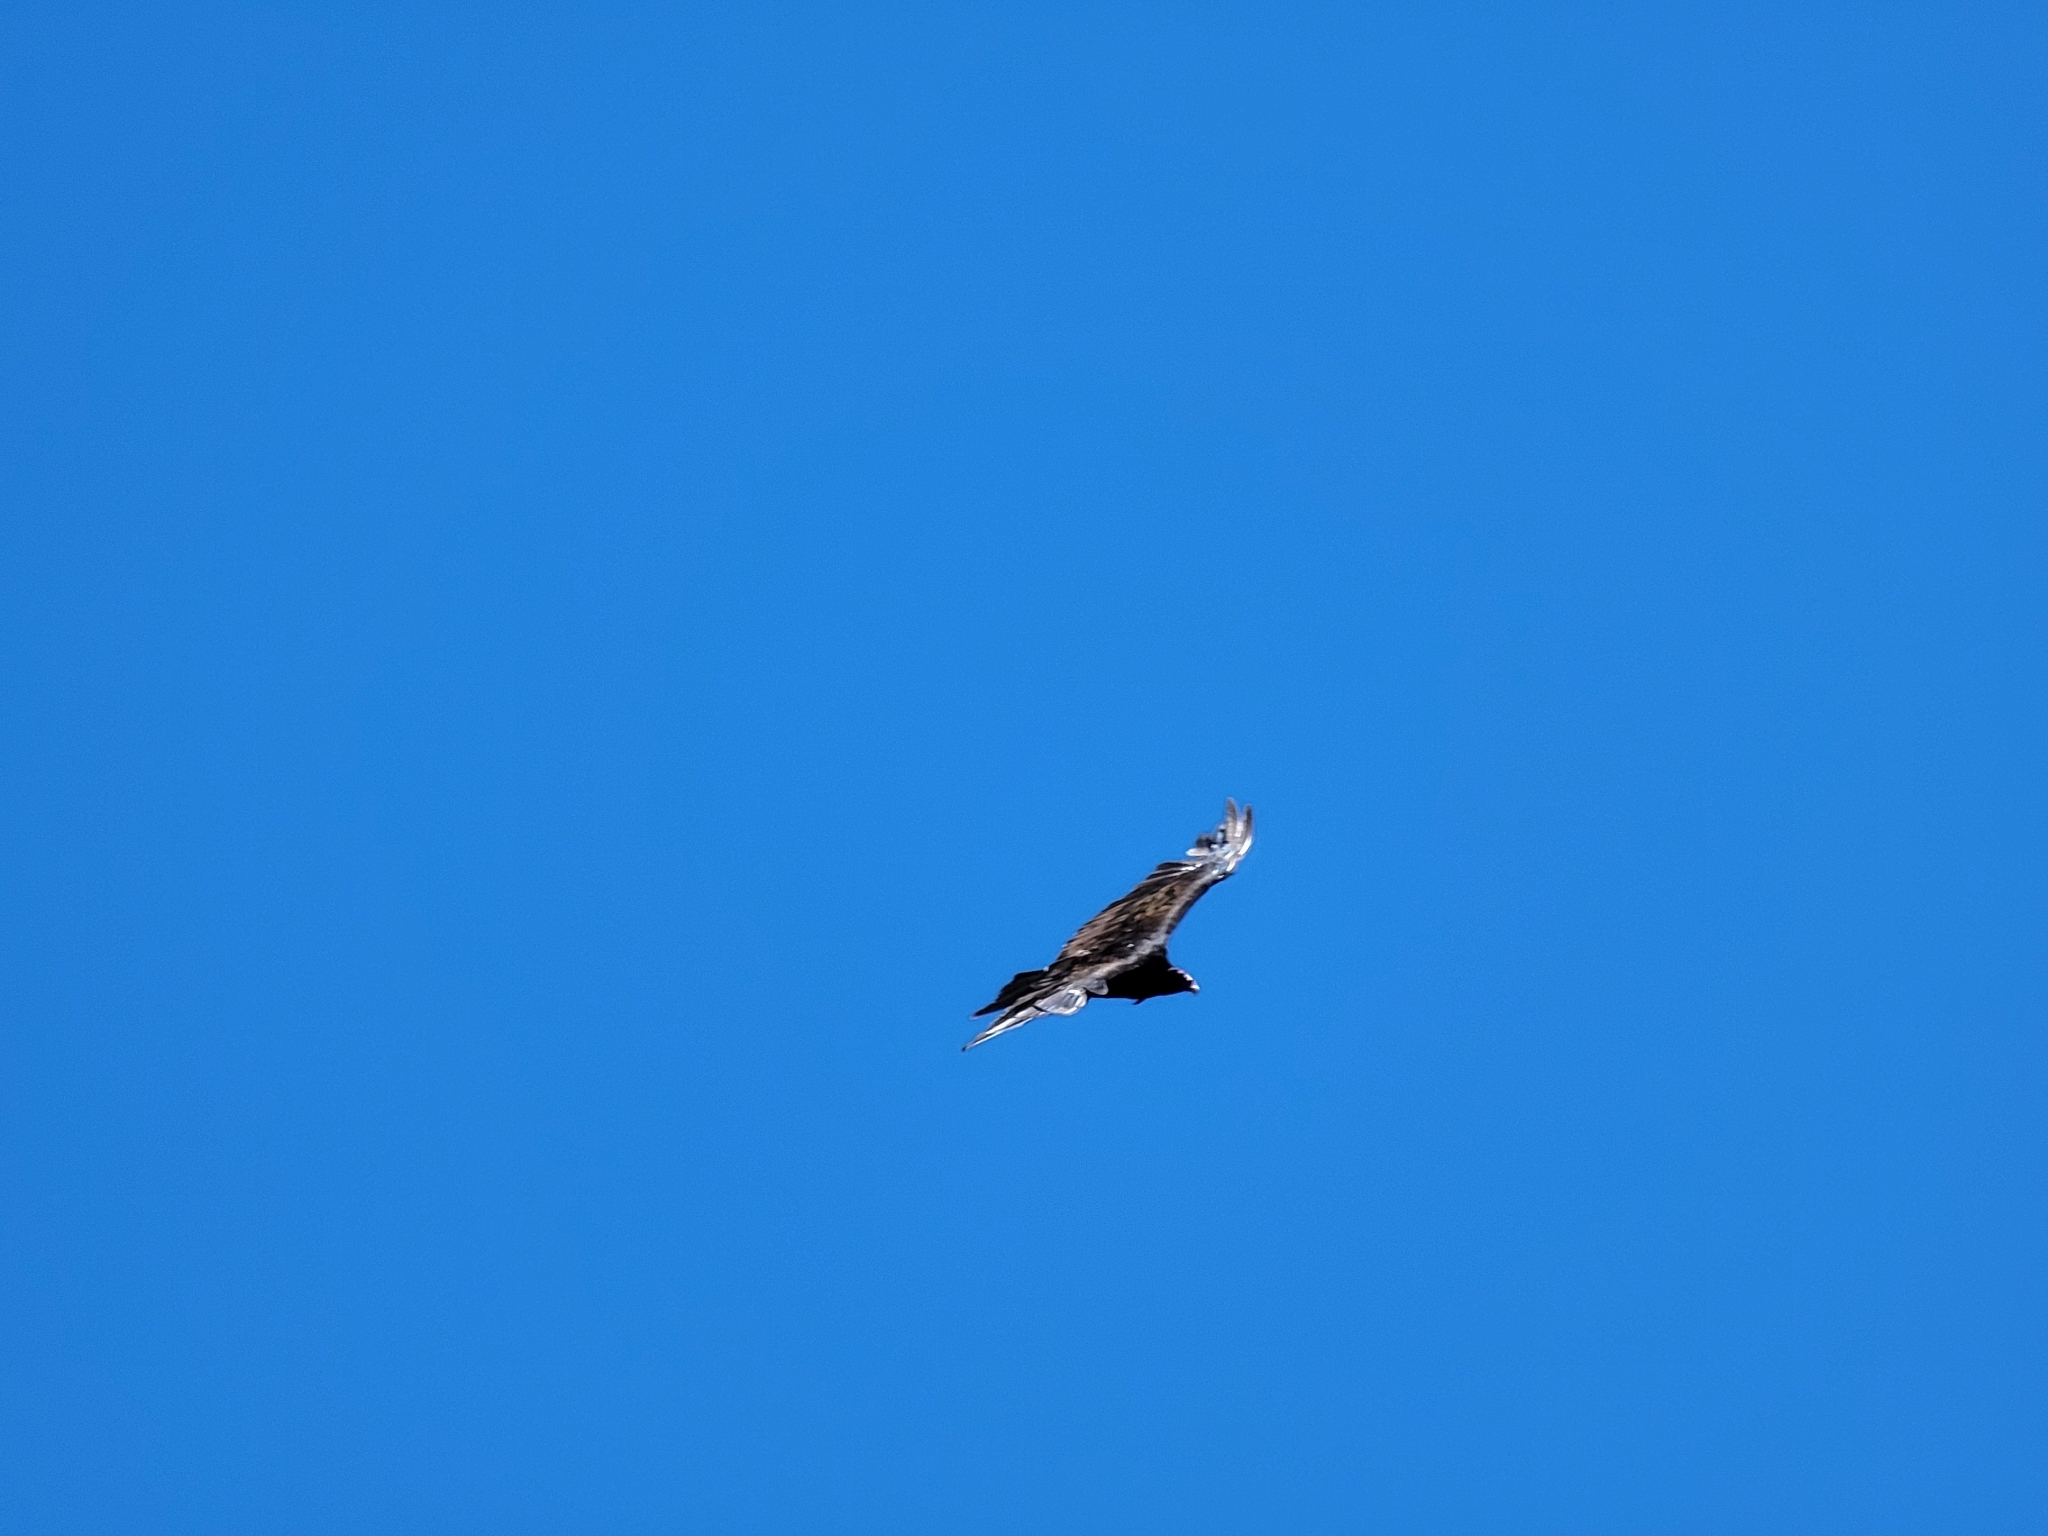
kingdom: Animalia
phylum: Chordata
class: Aves
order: Accipitriformes
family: Cathartidae
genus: Cathartes
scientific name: Cathartes aura
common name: Turkey vulture
